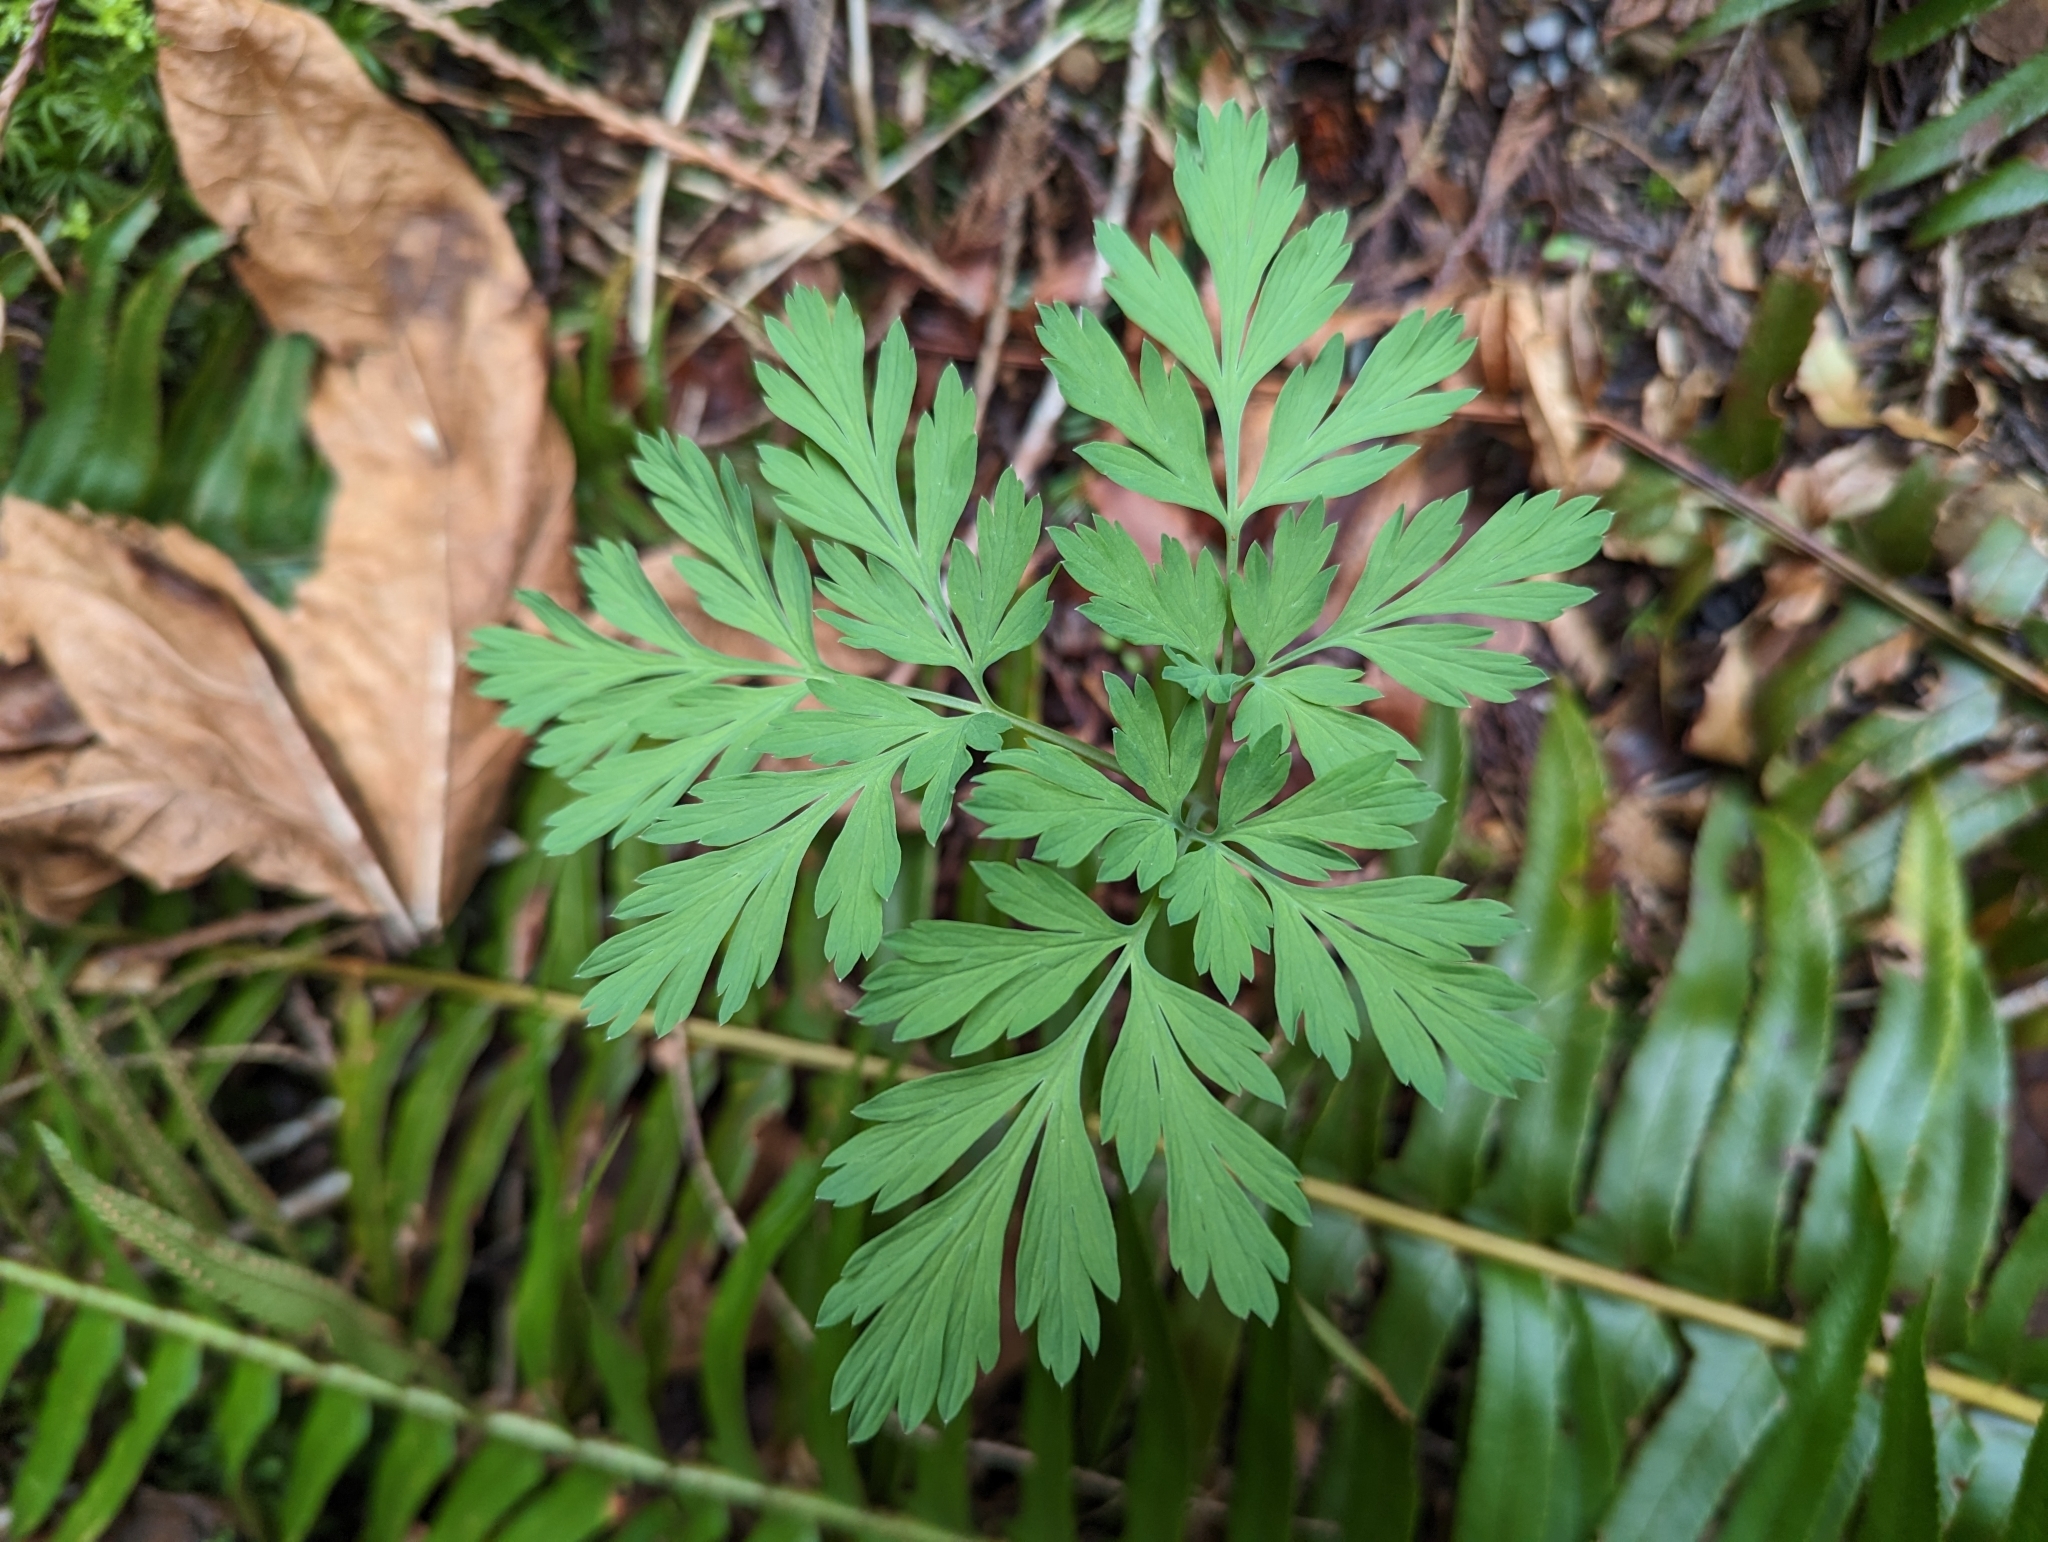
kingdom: Plantae
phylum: Tracheophyta
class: Magnoliopsida
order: Ranunculales
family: Papaveraceae
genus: Dicentra
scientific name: Dicentra formosa
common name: Bleeding-heart
